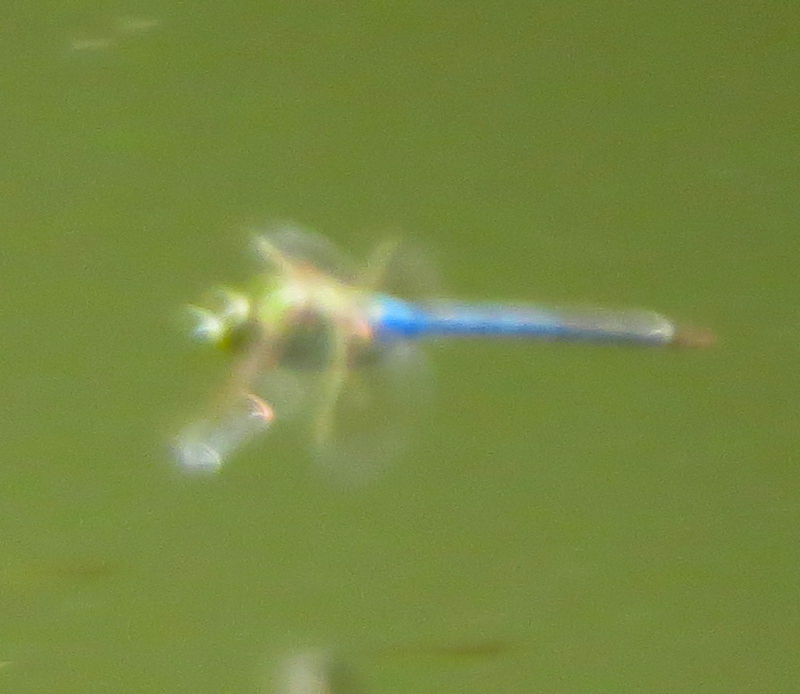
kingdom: Animalia
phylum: Arthropoda
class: Insecta
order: Odonata
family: Aeshnidae
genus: Anax
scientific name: Anax junius
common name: Common green darner
